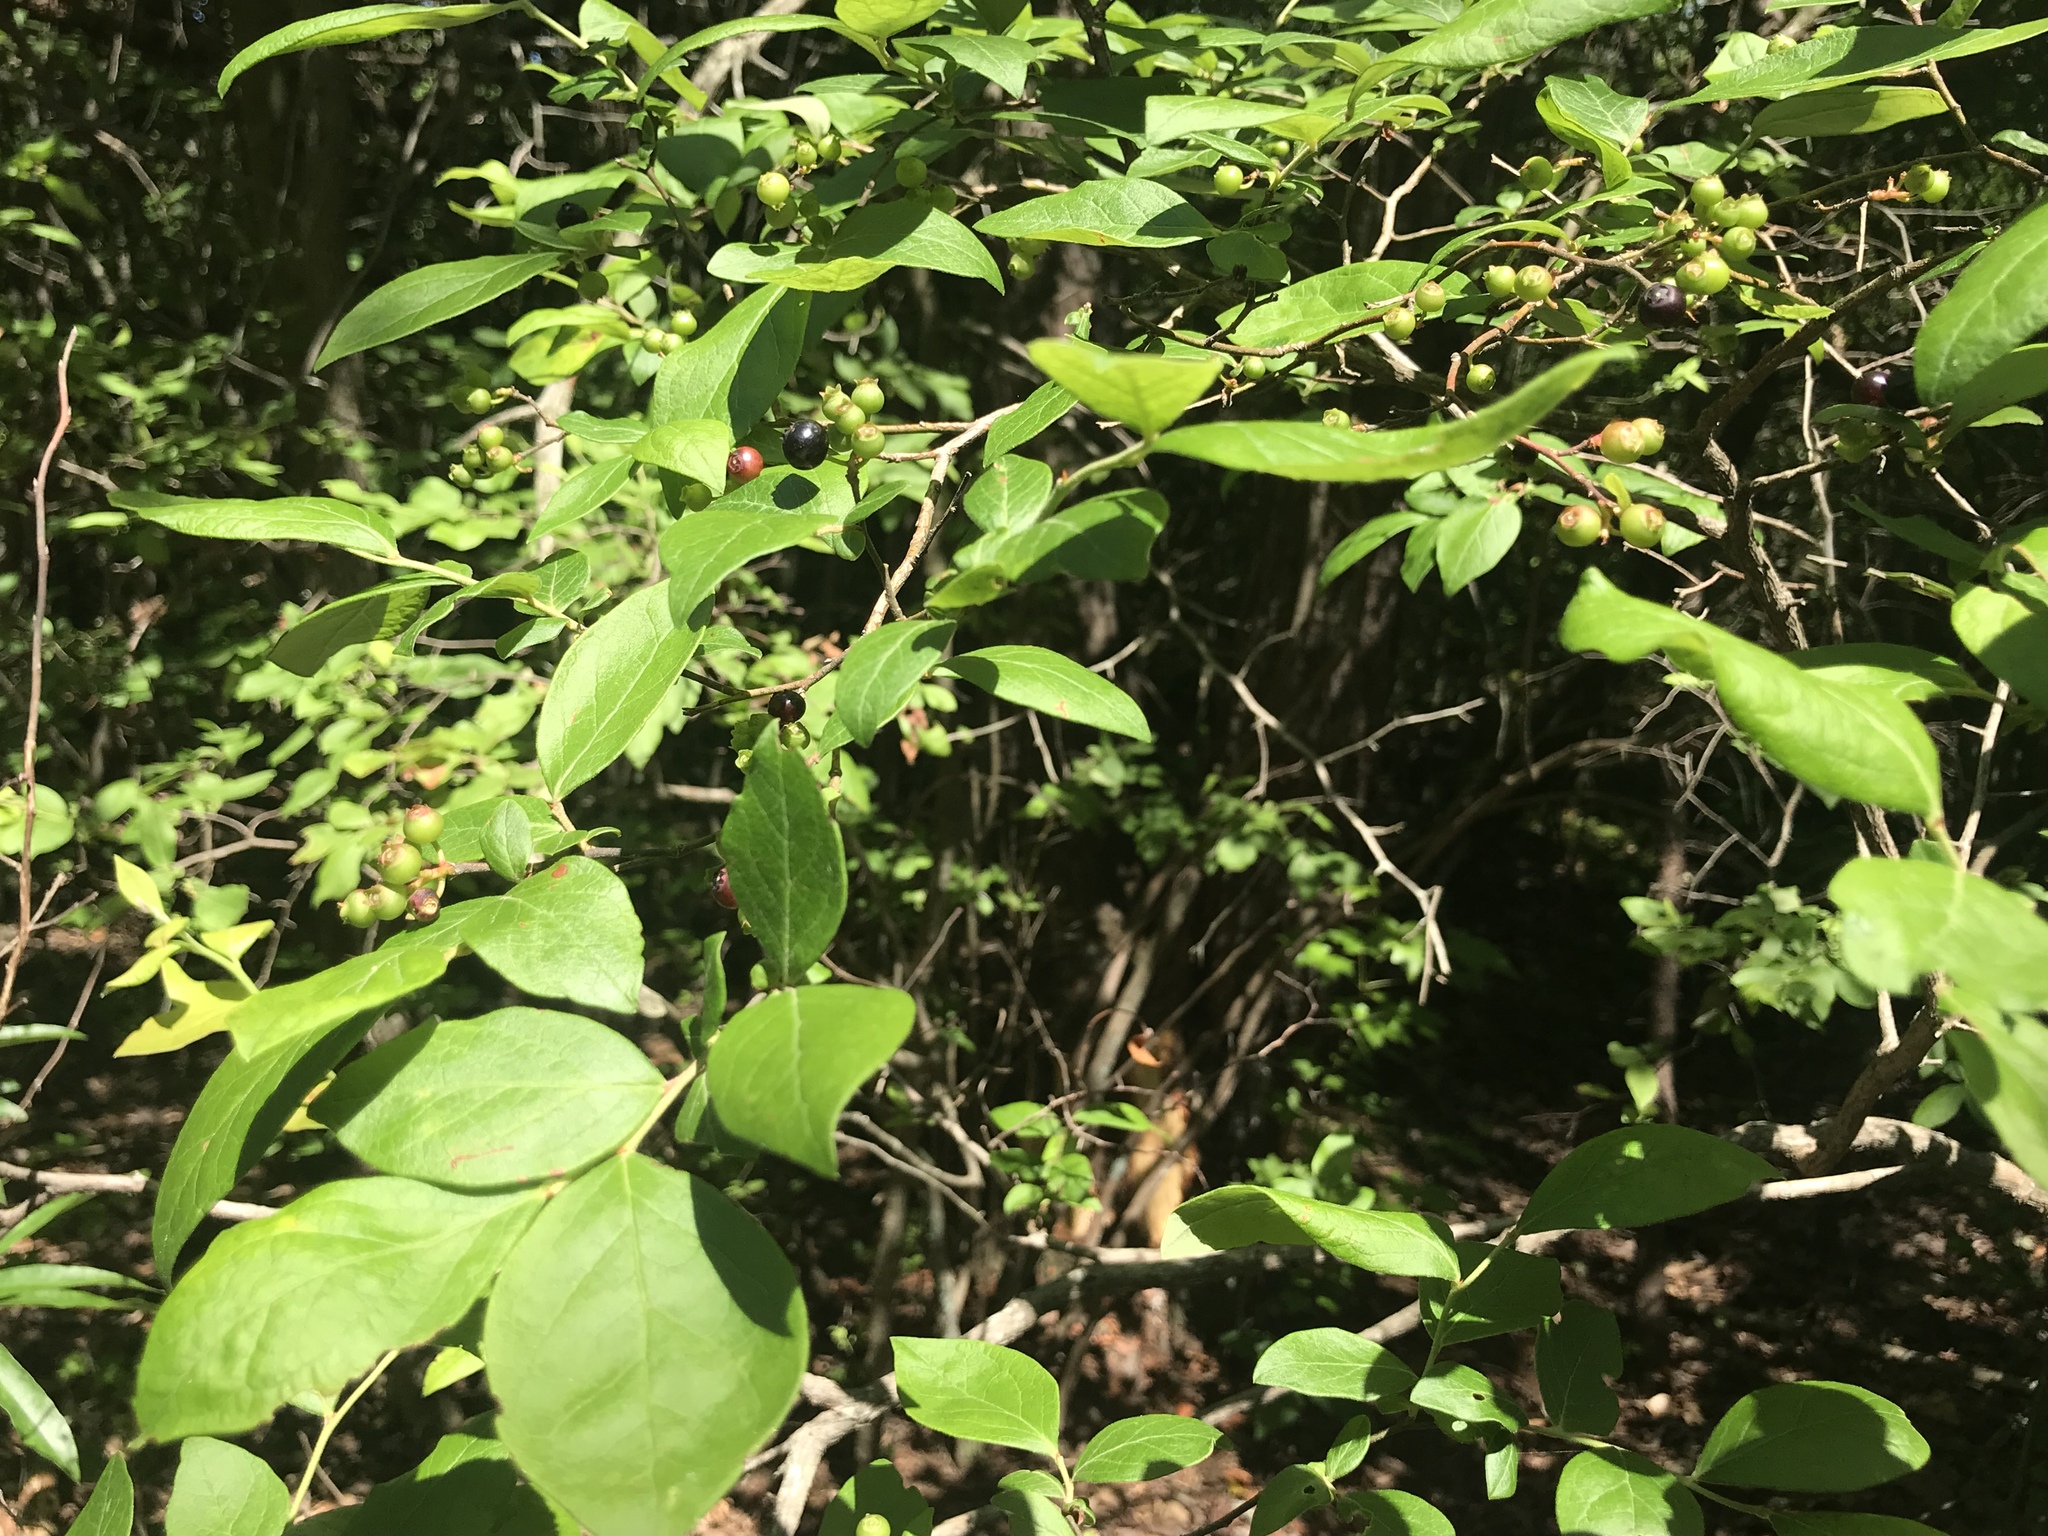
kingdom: Plantae
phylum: Tracheophyta
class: Magnoliopsida
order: Ericales
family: Ericaceae
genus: Vaccinium
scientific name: Vaccinium corymbosum
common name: Blueberry
